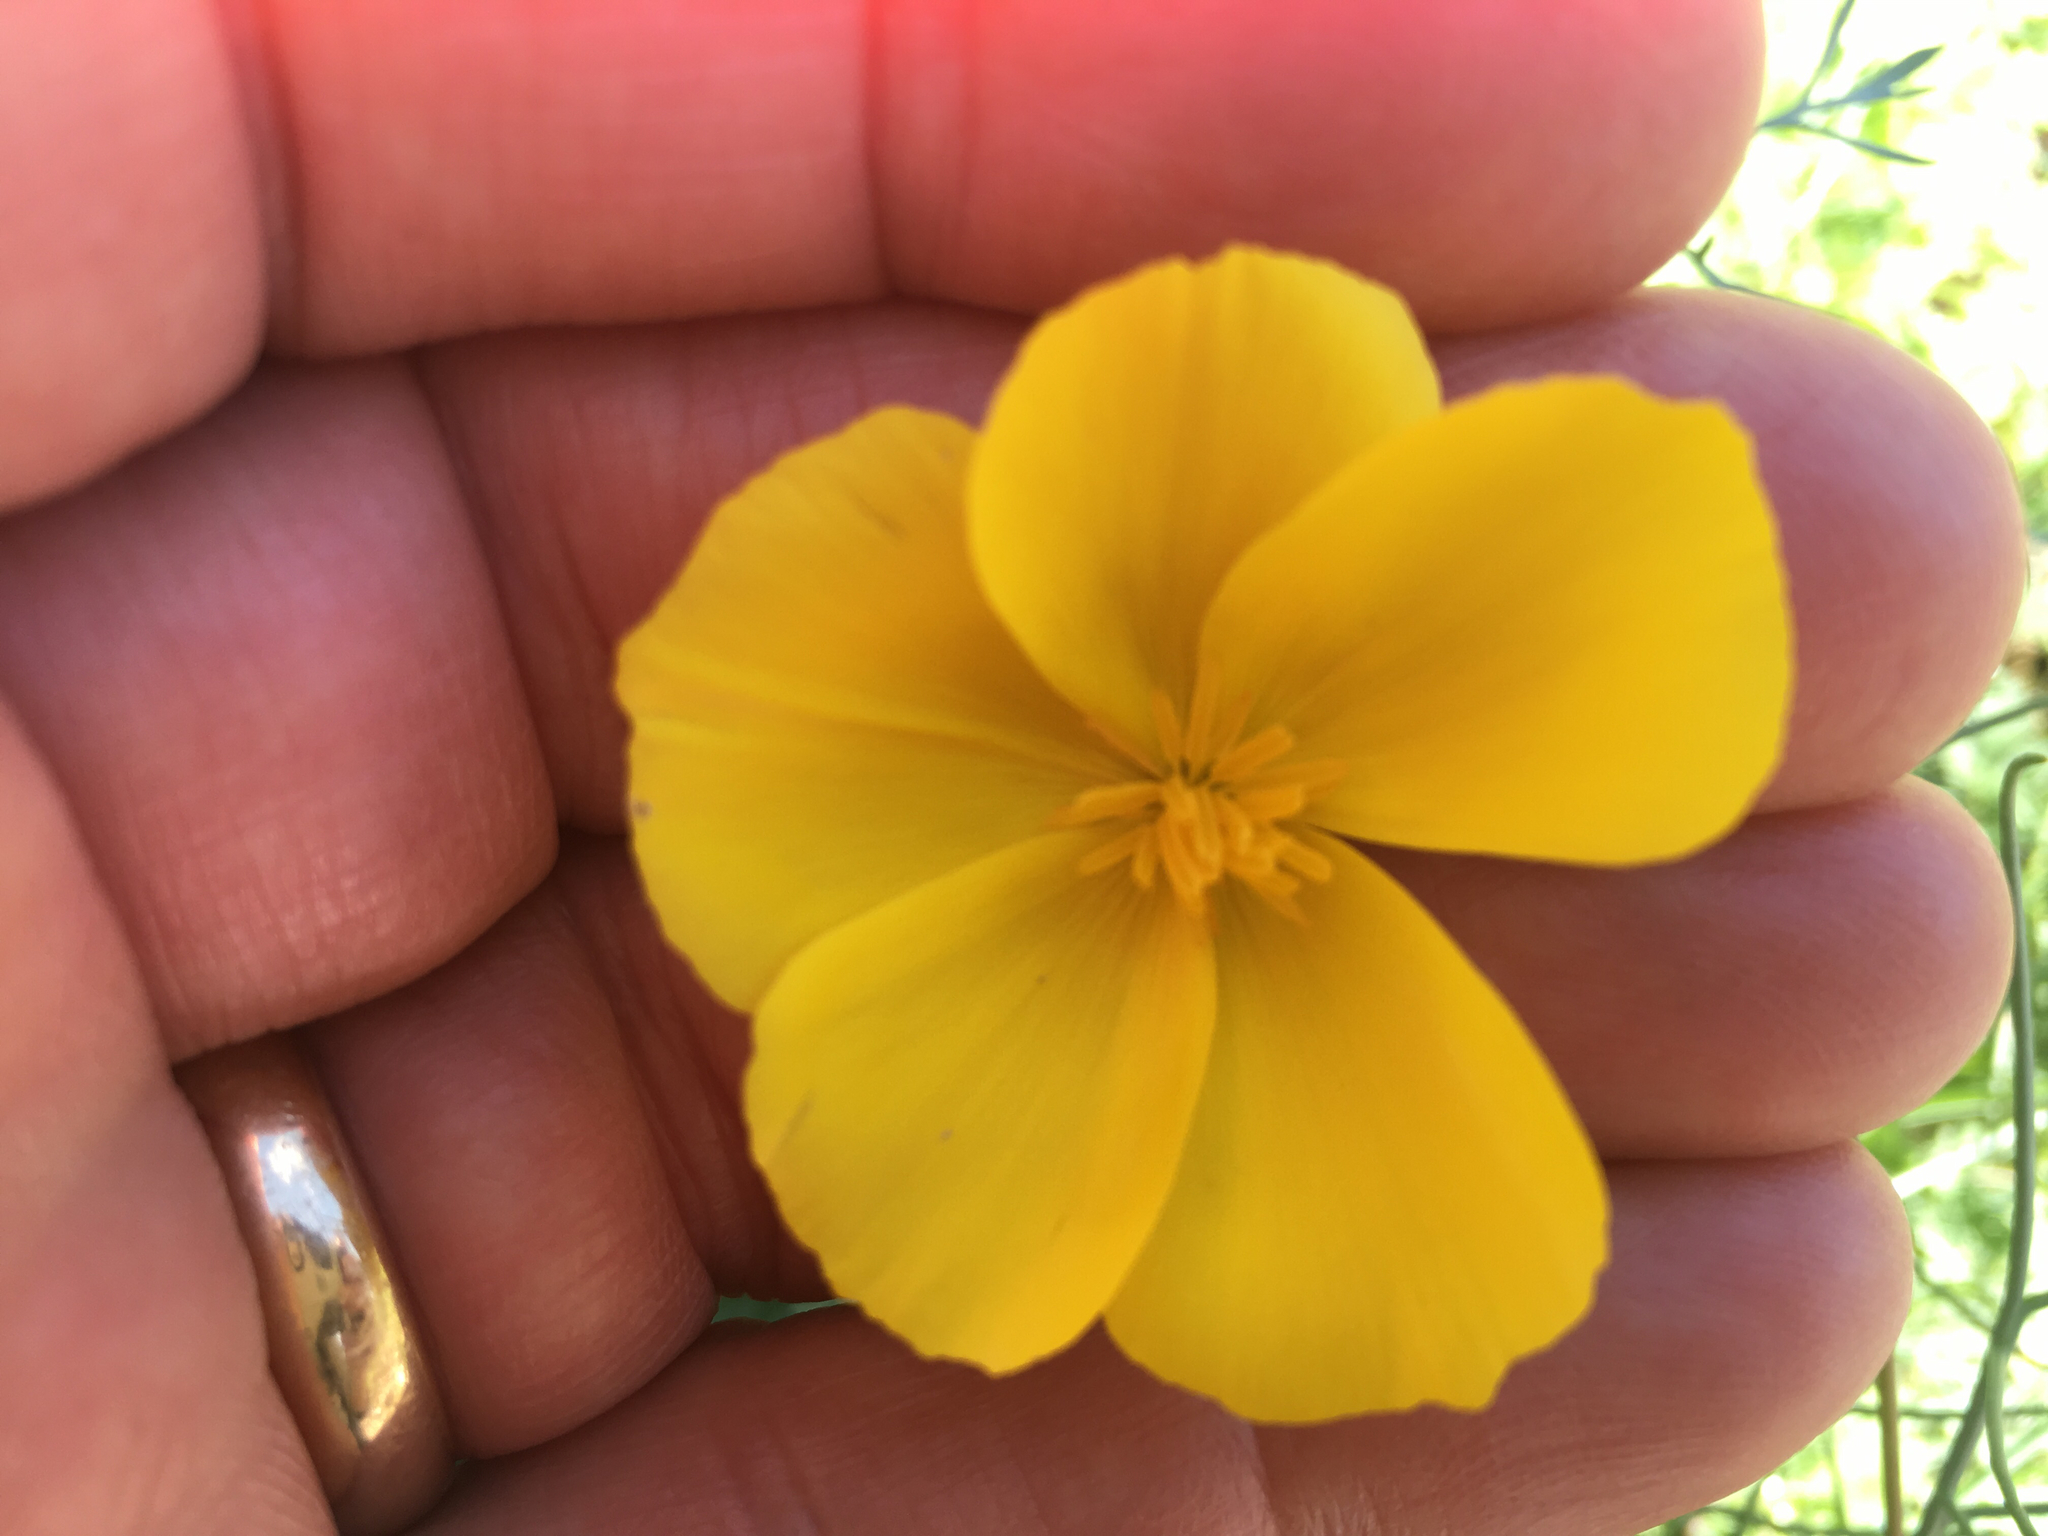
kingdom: Plantae
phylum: Tracheophyta
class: Magnoliopsida
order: Ranunculales
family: Papaveraceae
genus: Eschscholzia
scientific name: Eschscholzia parishii
